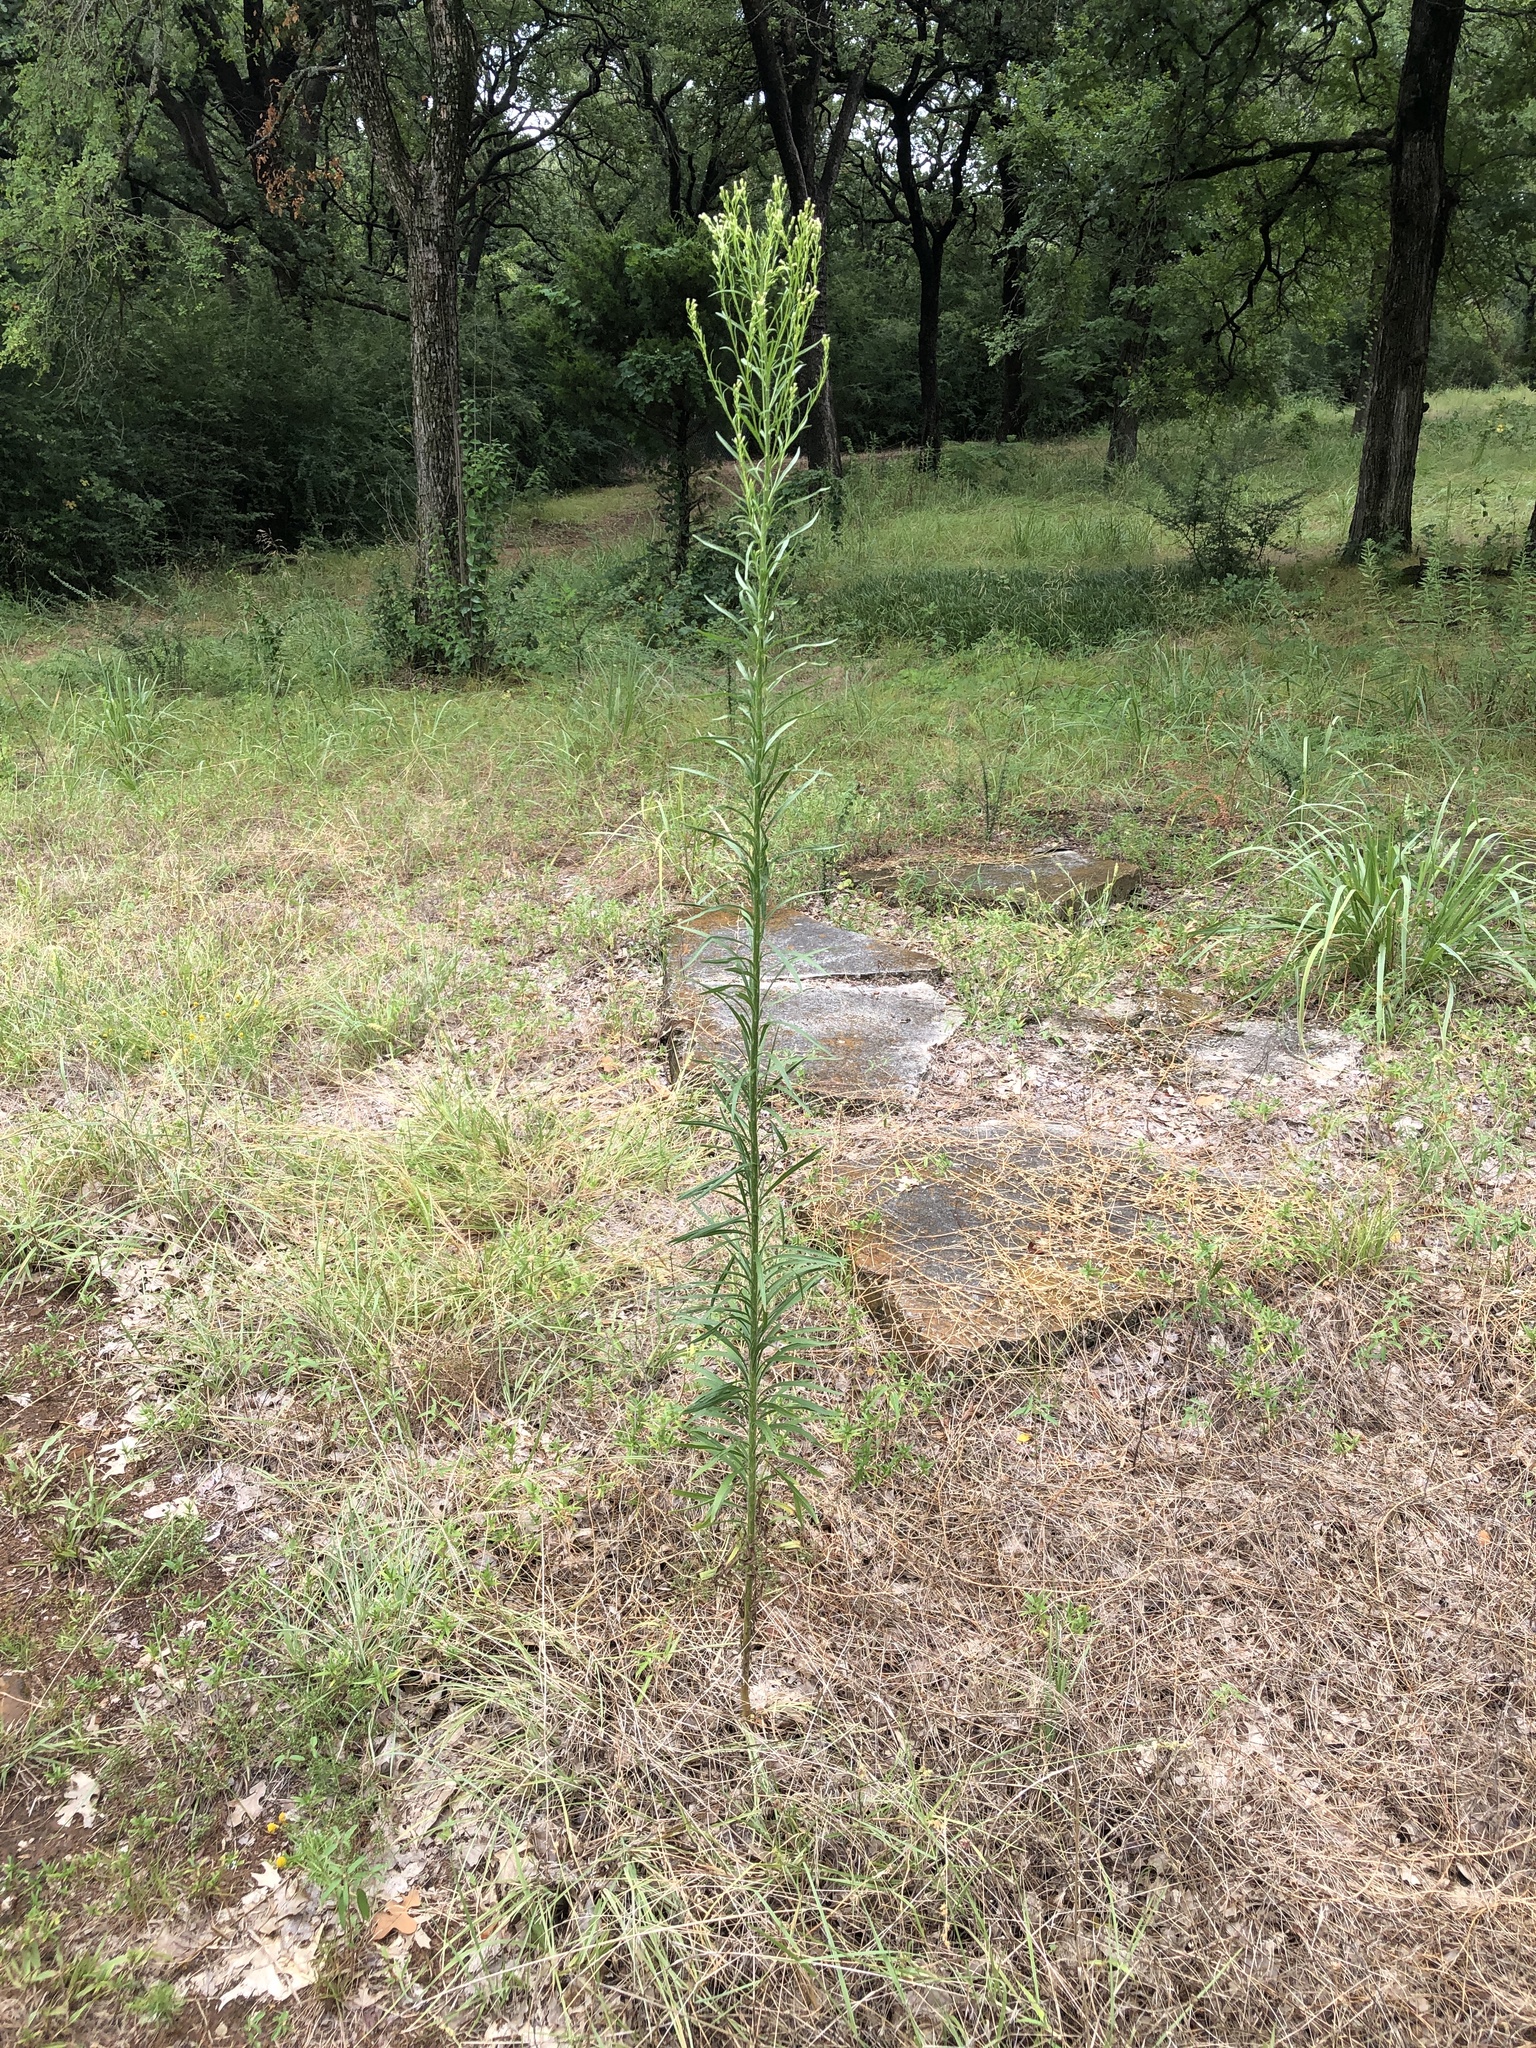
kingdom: Plantae
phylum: Tracheophyta
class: Magnoliopsida
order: Asterales
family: Asteraceae
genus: Erigeron
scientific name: Erigeron canadensis
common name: Canadian fleabane
